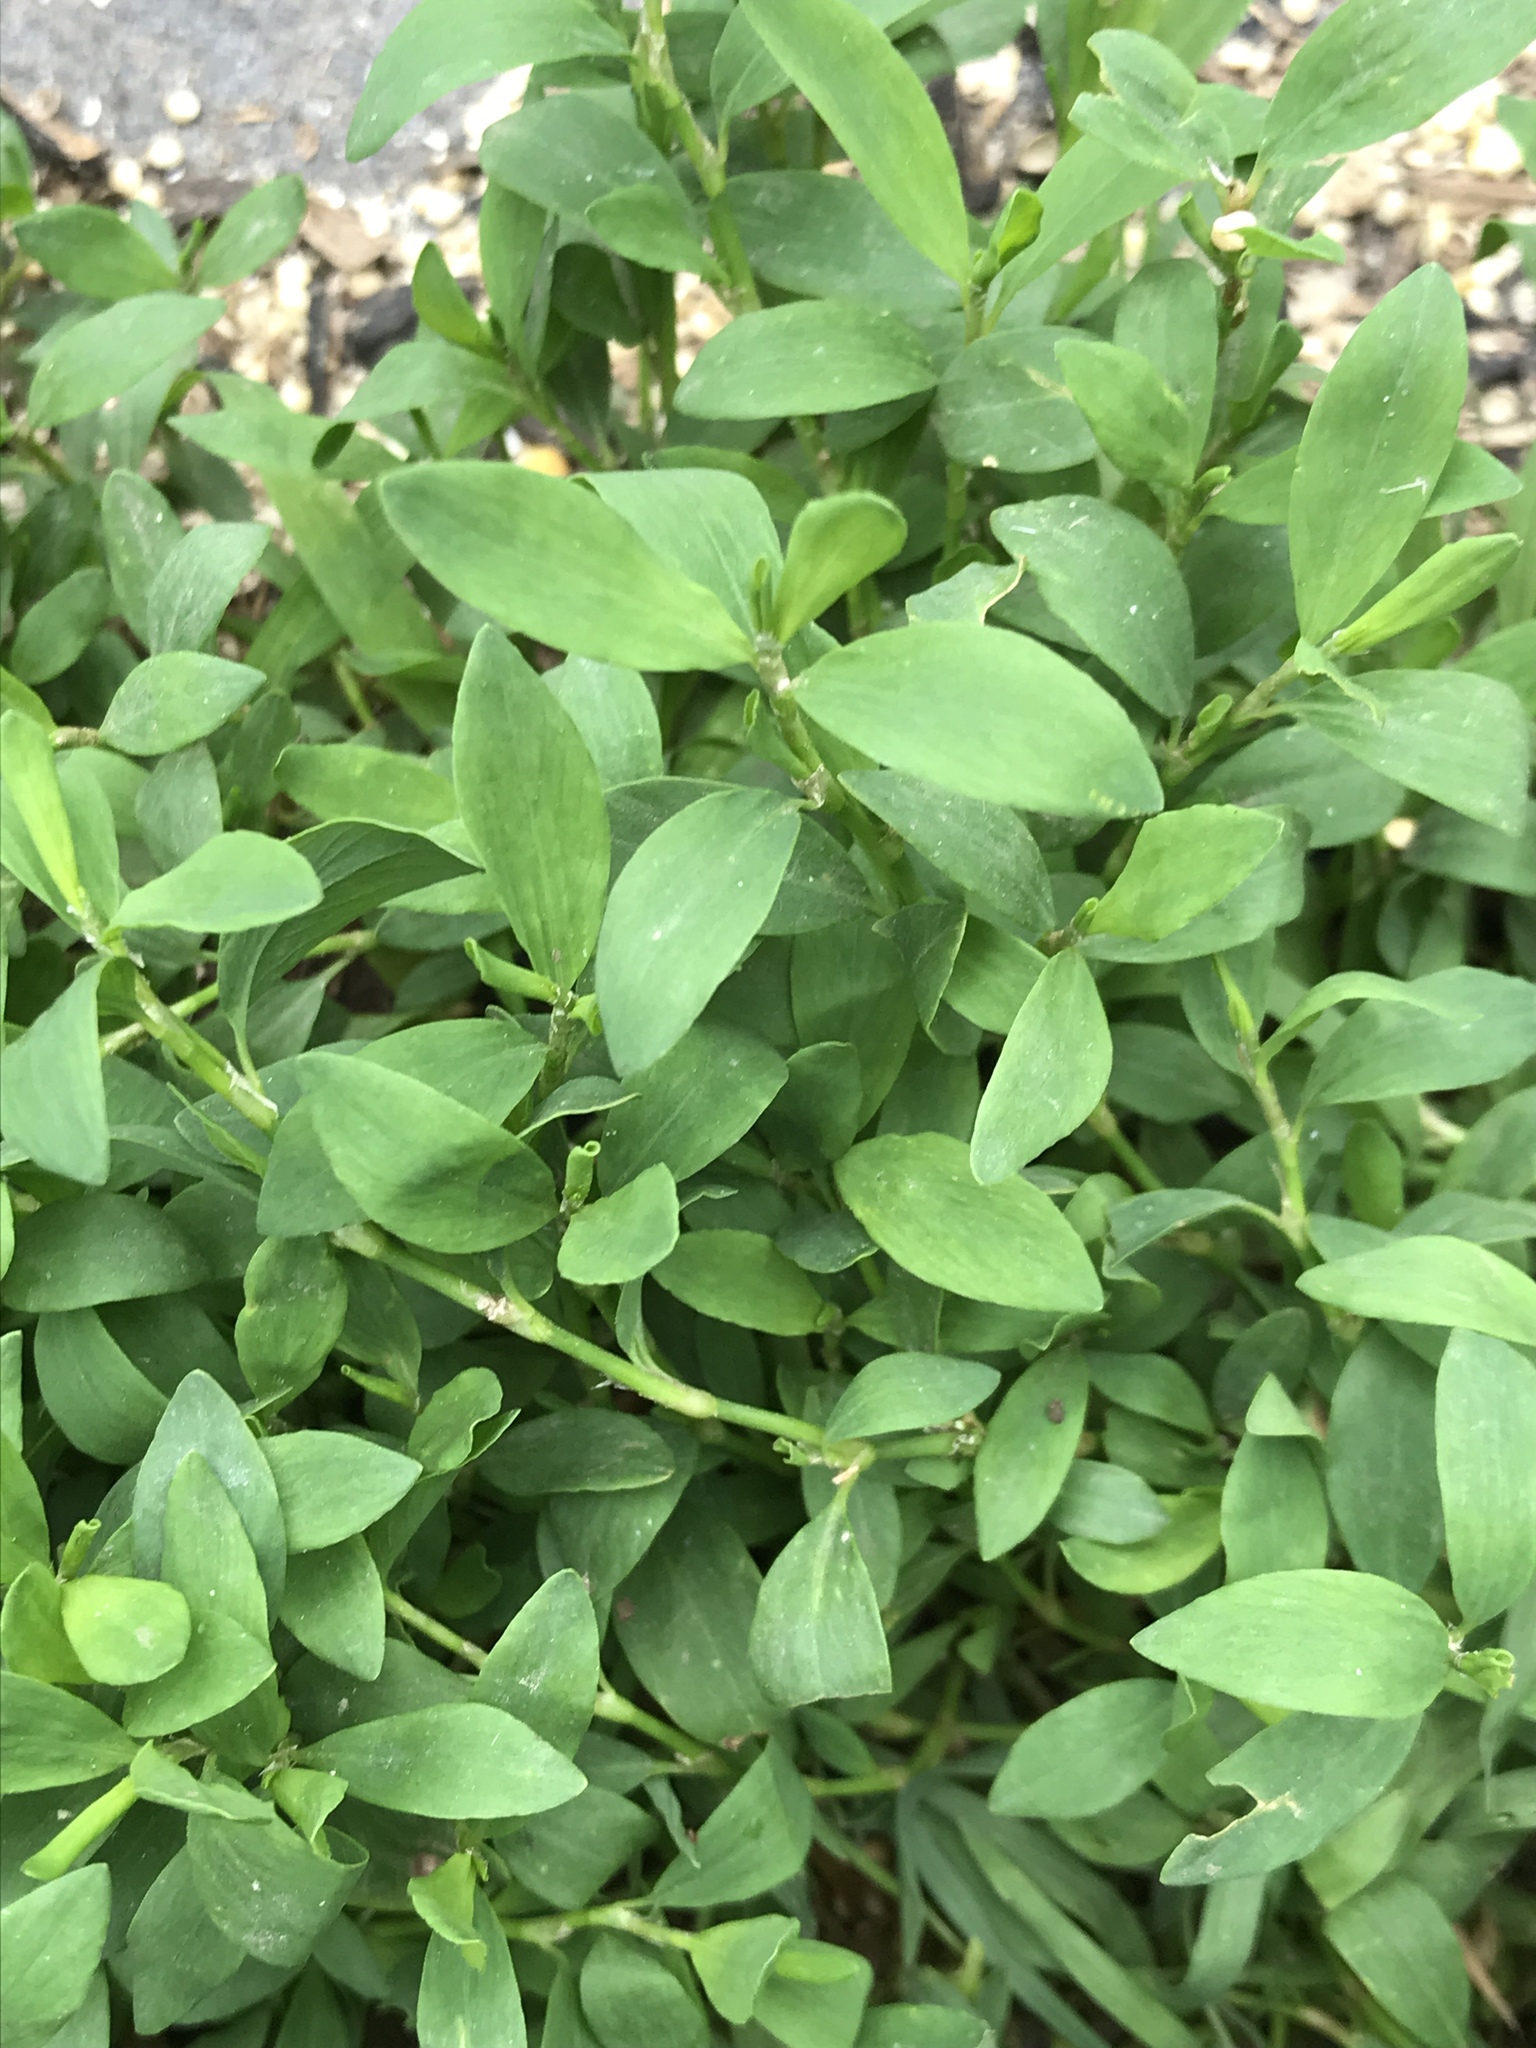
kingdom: Plantae
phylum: Tracheophyta
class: Magnoliopsida
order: Caryophyllales
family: Polygonaceae
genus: Polygonum
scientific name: Polygonum aviculare
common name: Prostrate knotweed
